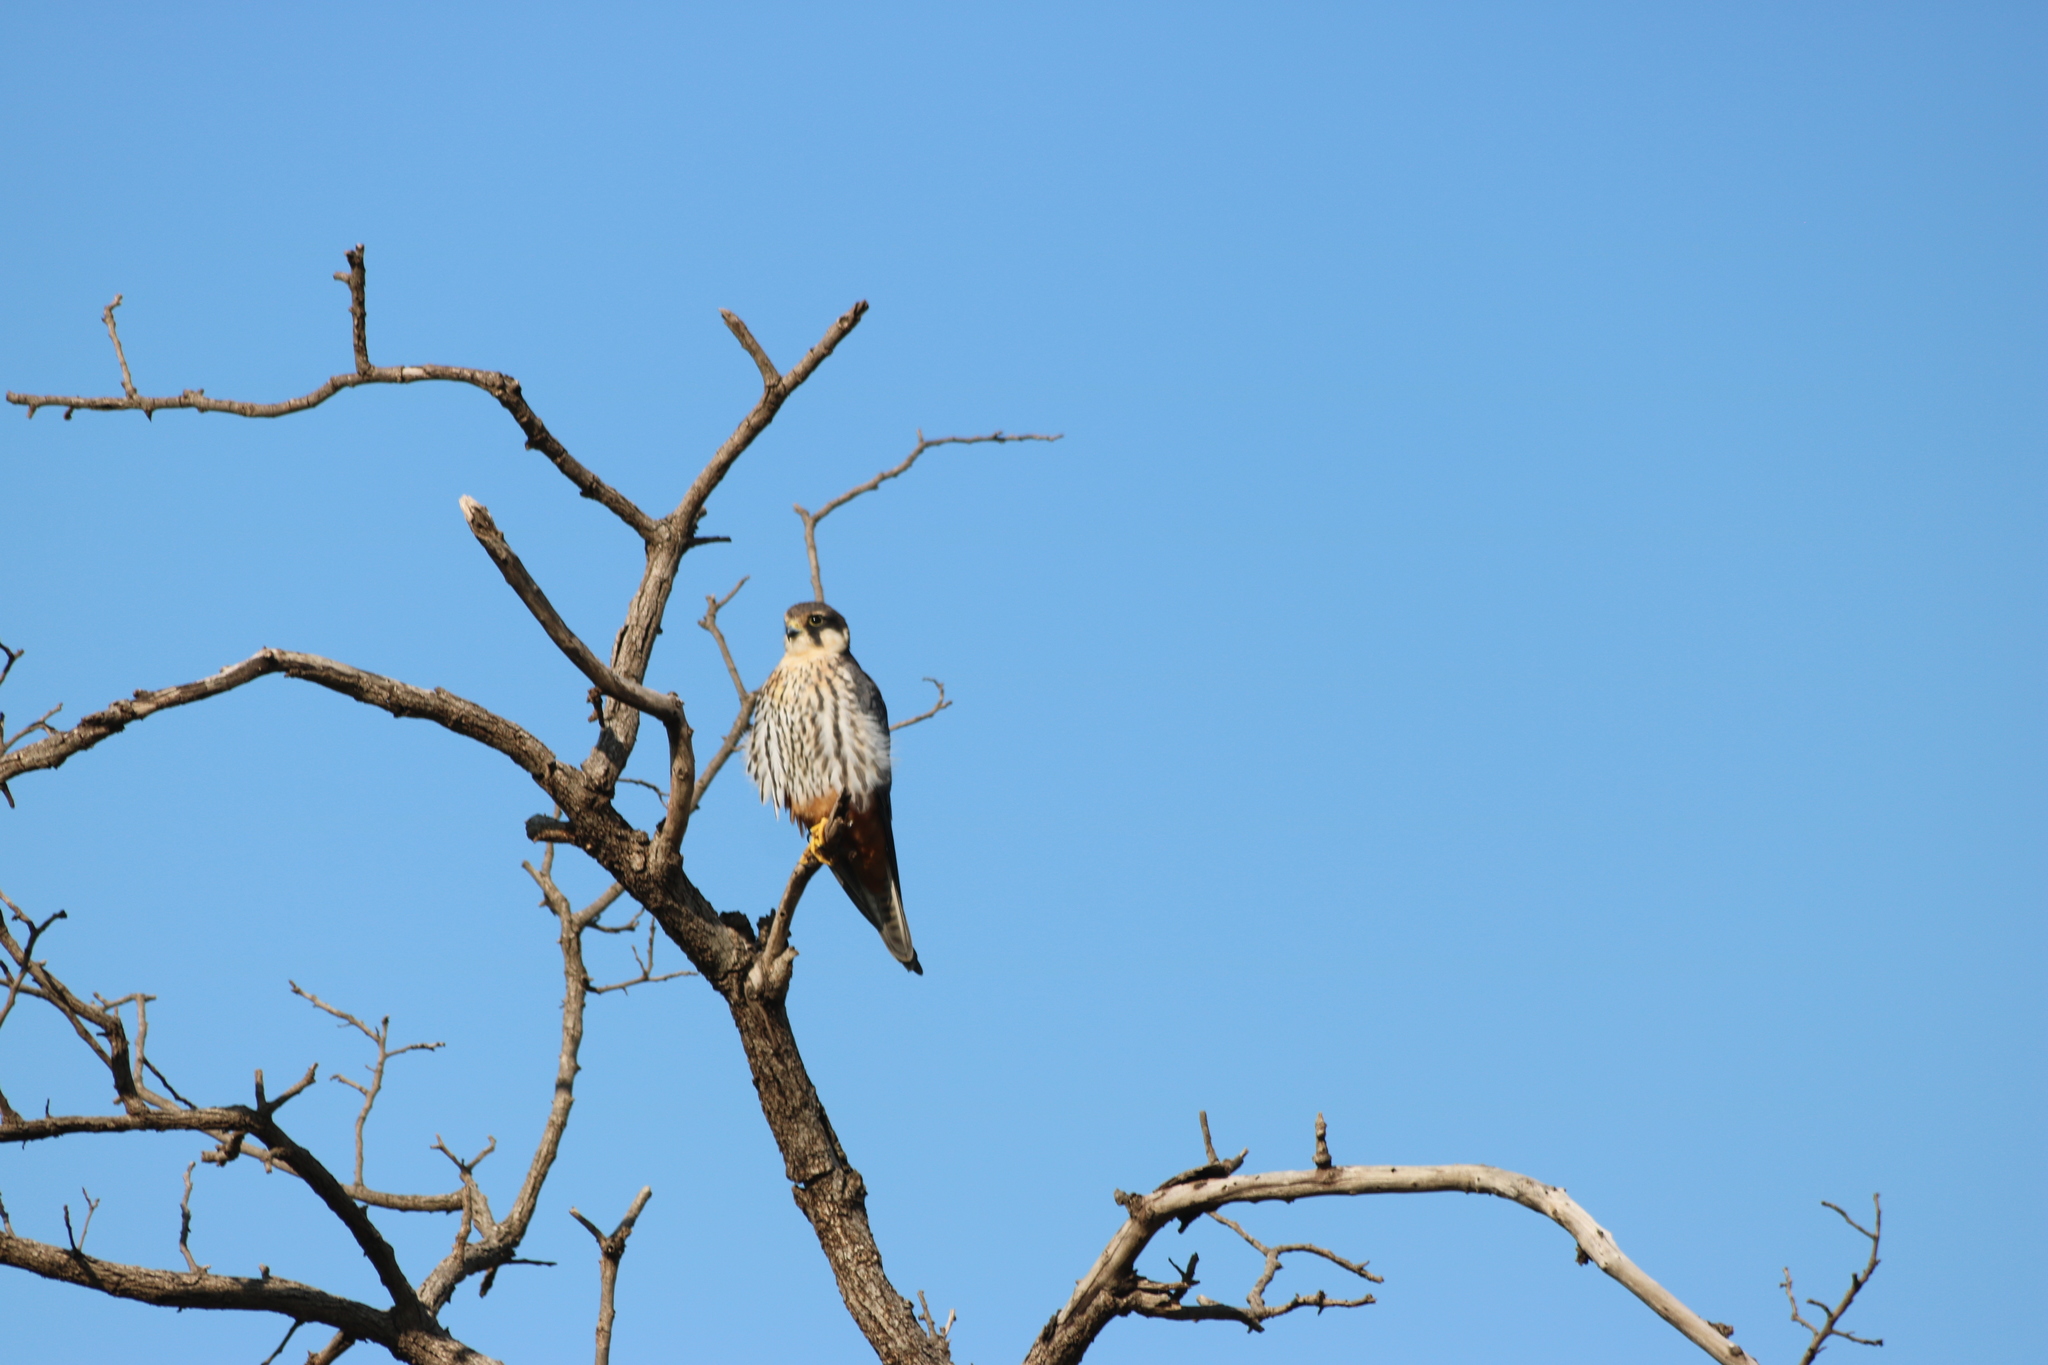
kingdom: Animalia
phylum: Chordata
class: Aves
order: Falconiformes
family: Falconidae
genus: Falco
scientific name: Falco subbuteo
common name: Eurasian hobby
